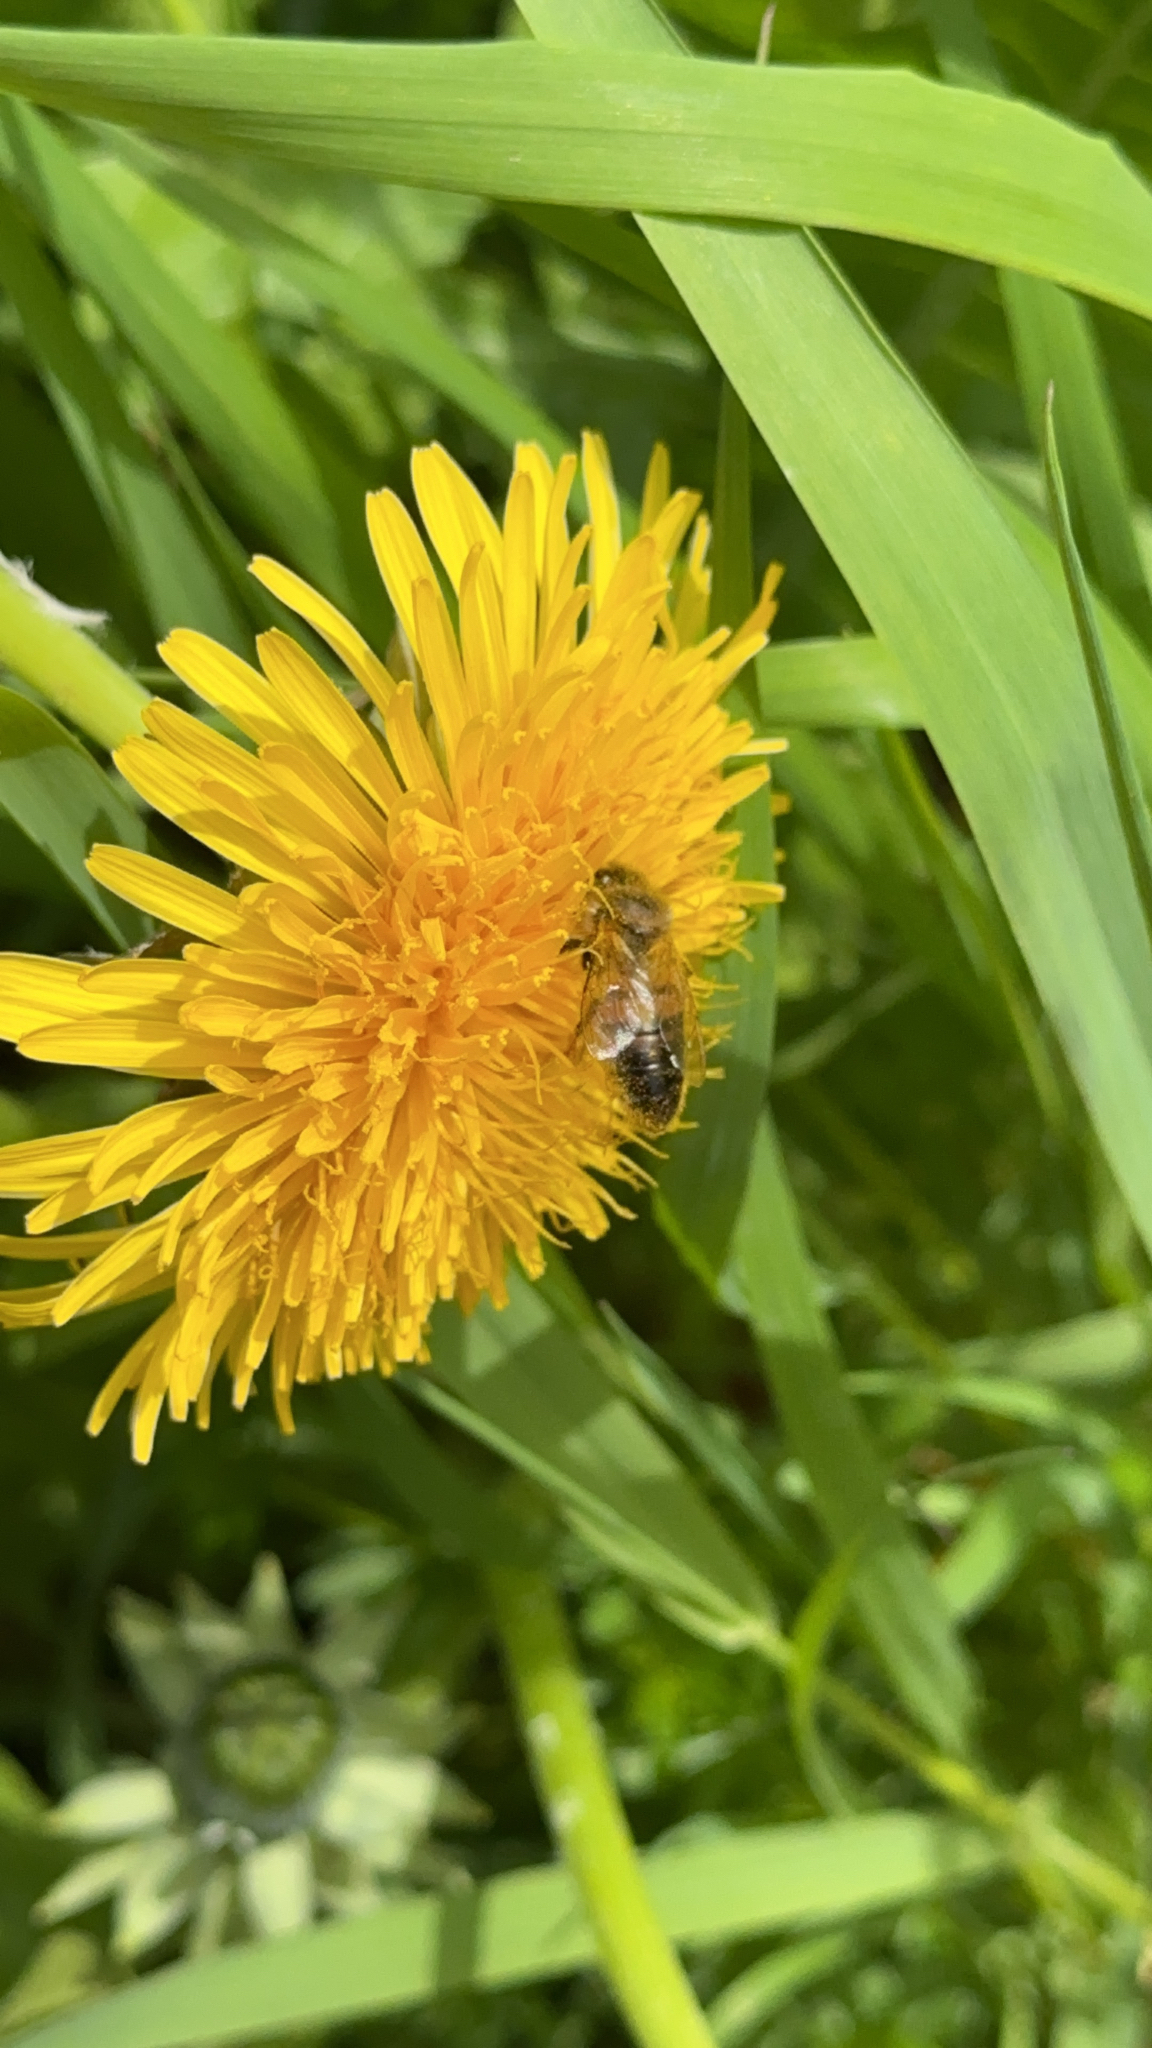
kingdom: Animalia
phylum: Arthropoda
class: Insecta
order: Hymenoptera
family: Apidae
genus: Apis
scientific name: Apis mellifera
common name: Honey bee
